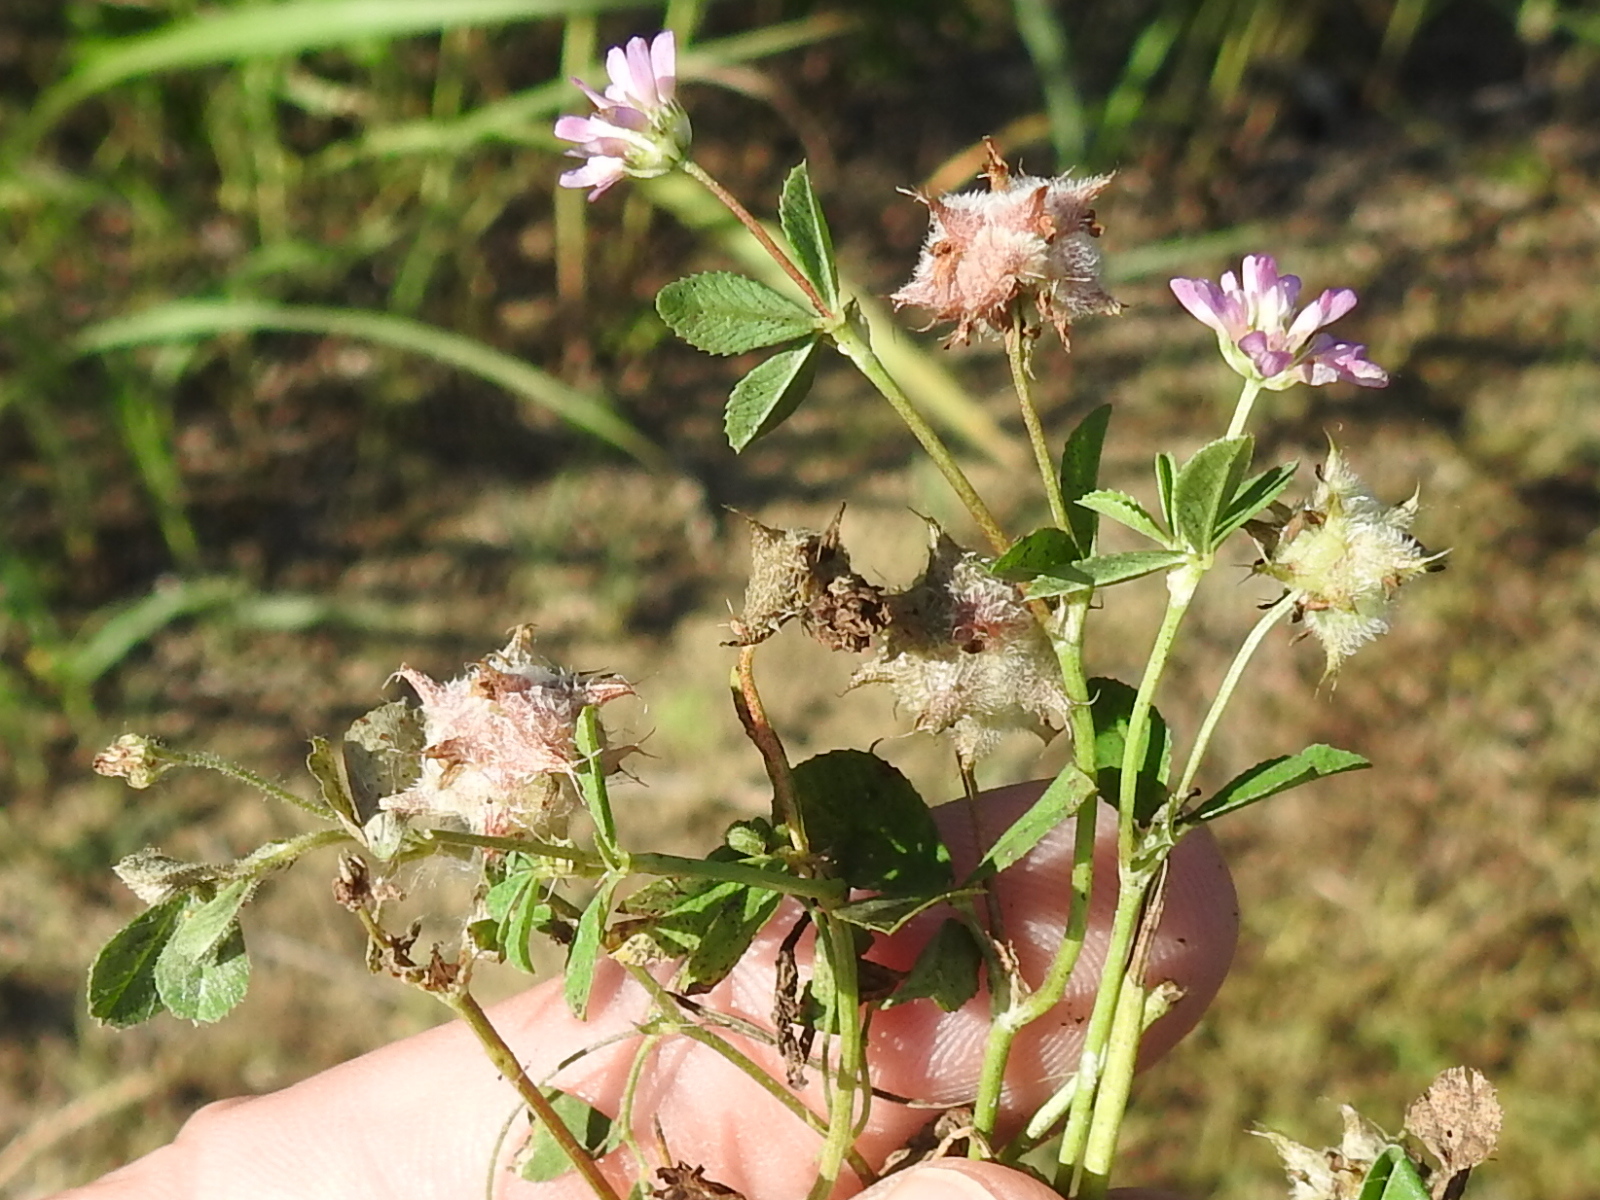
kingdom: Plantae
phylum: Tracheophyta
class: Magnoliopsida
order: Fabales
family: Fabaceae
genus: Trifolium
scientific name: Trifolium resupinatum
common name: Reversed clover
